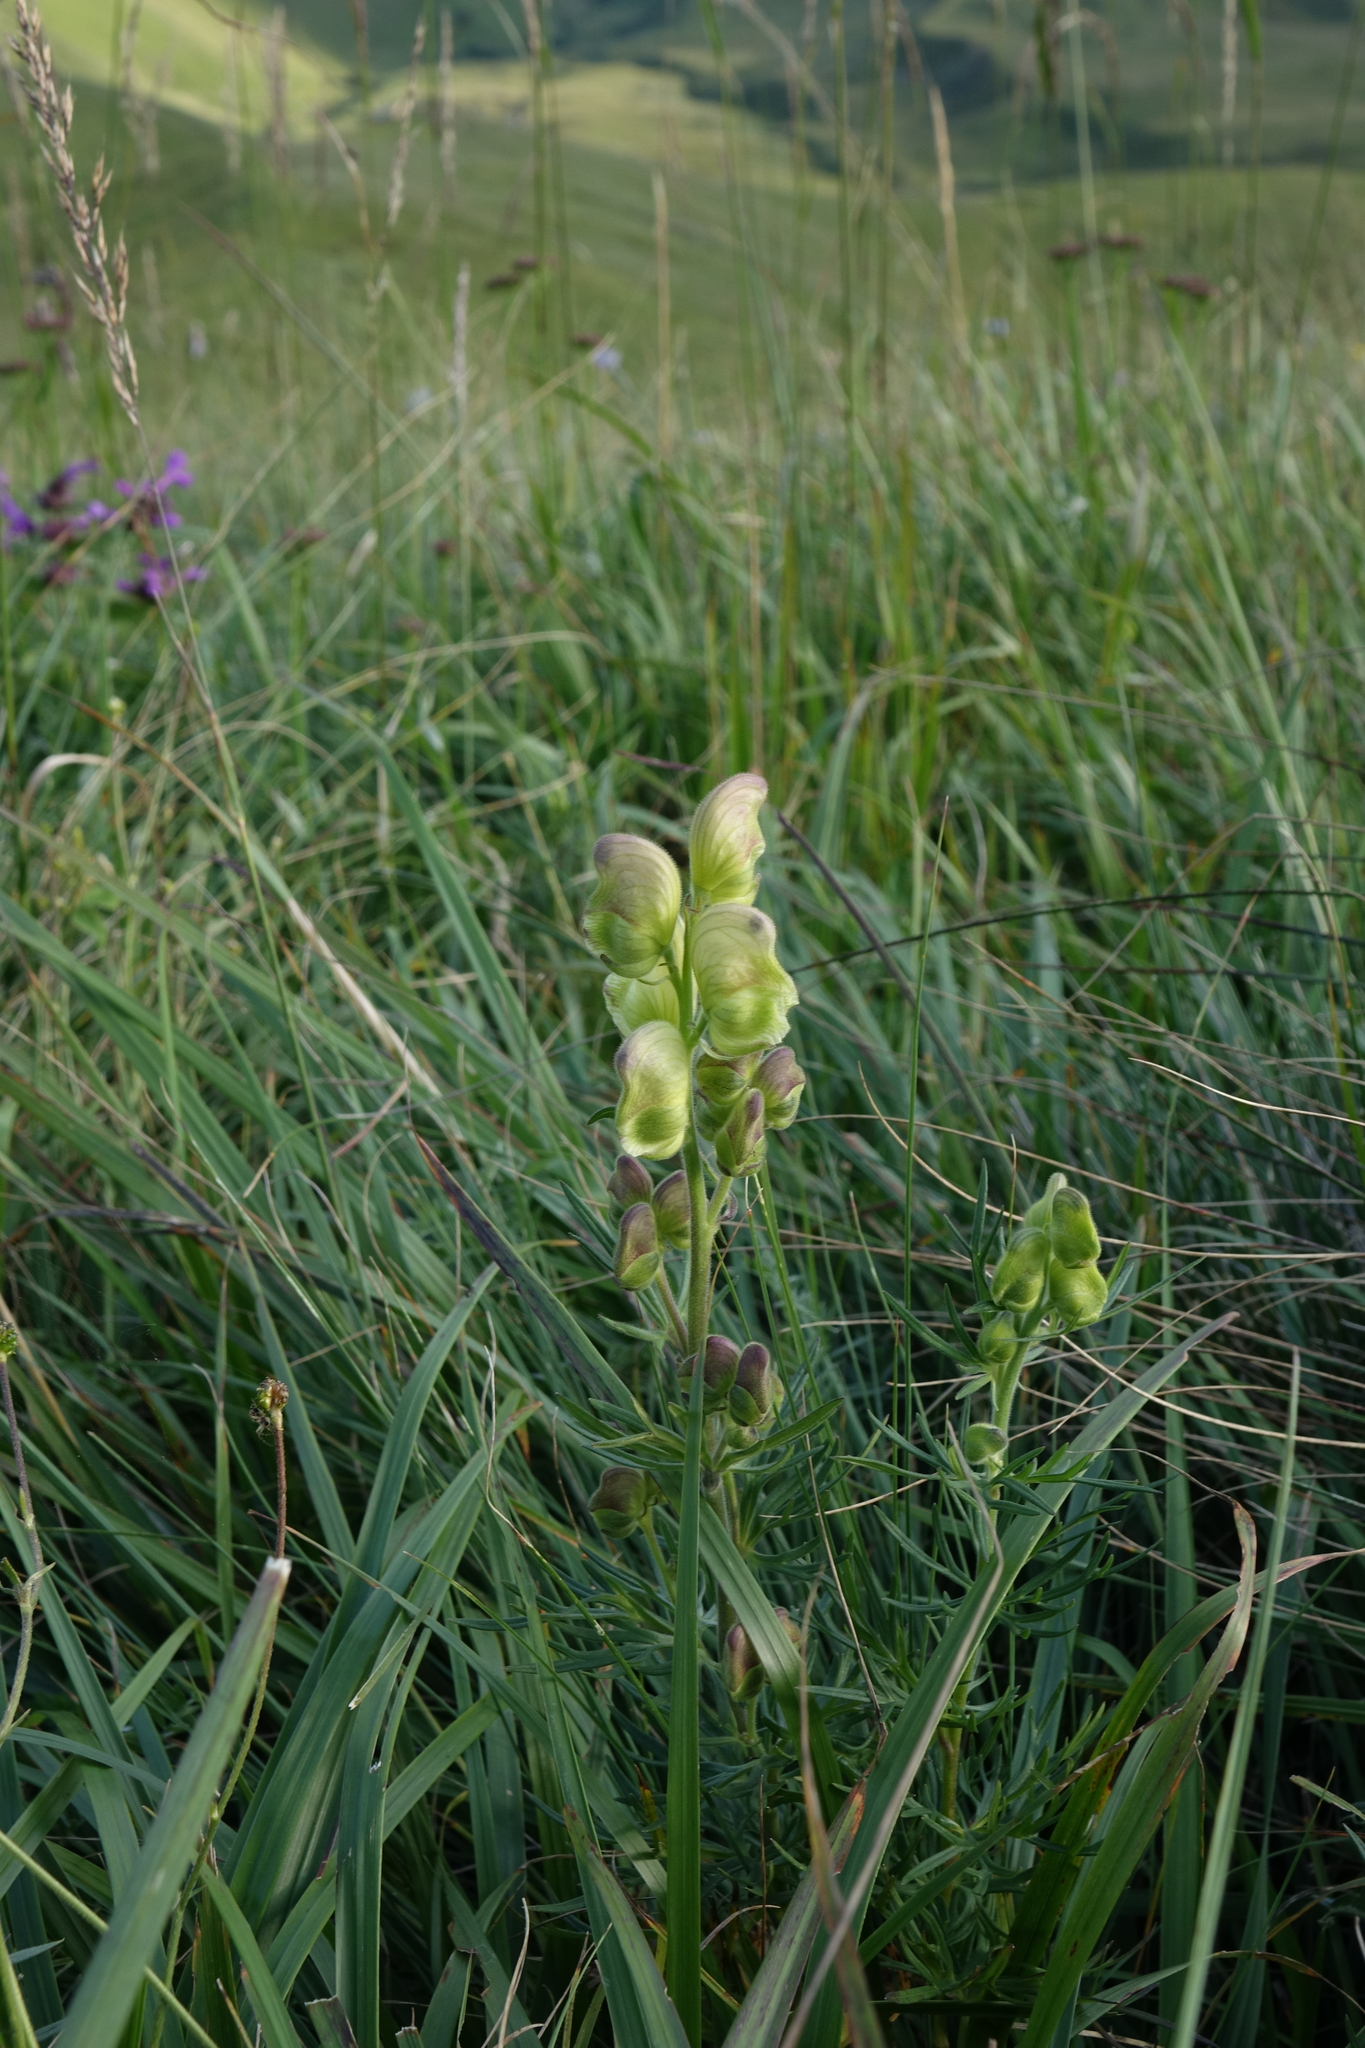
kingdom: Plantae
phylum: Tracheophyta
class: Magnoliopsida
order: Ranunculales
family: Ranunculaceae
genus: Aconitum
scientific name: Aconitum anthora
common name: Yellow monkshood
